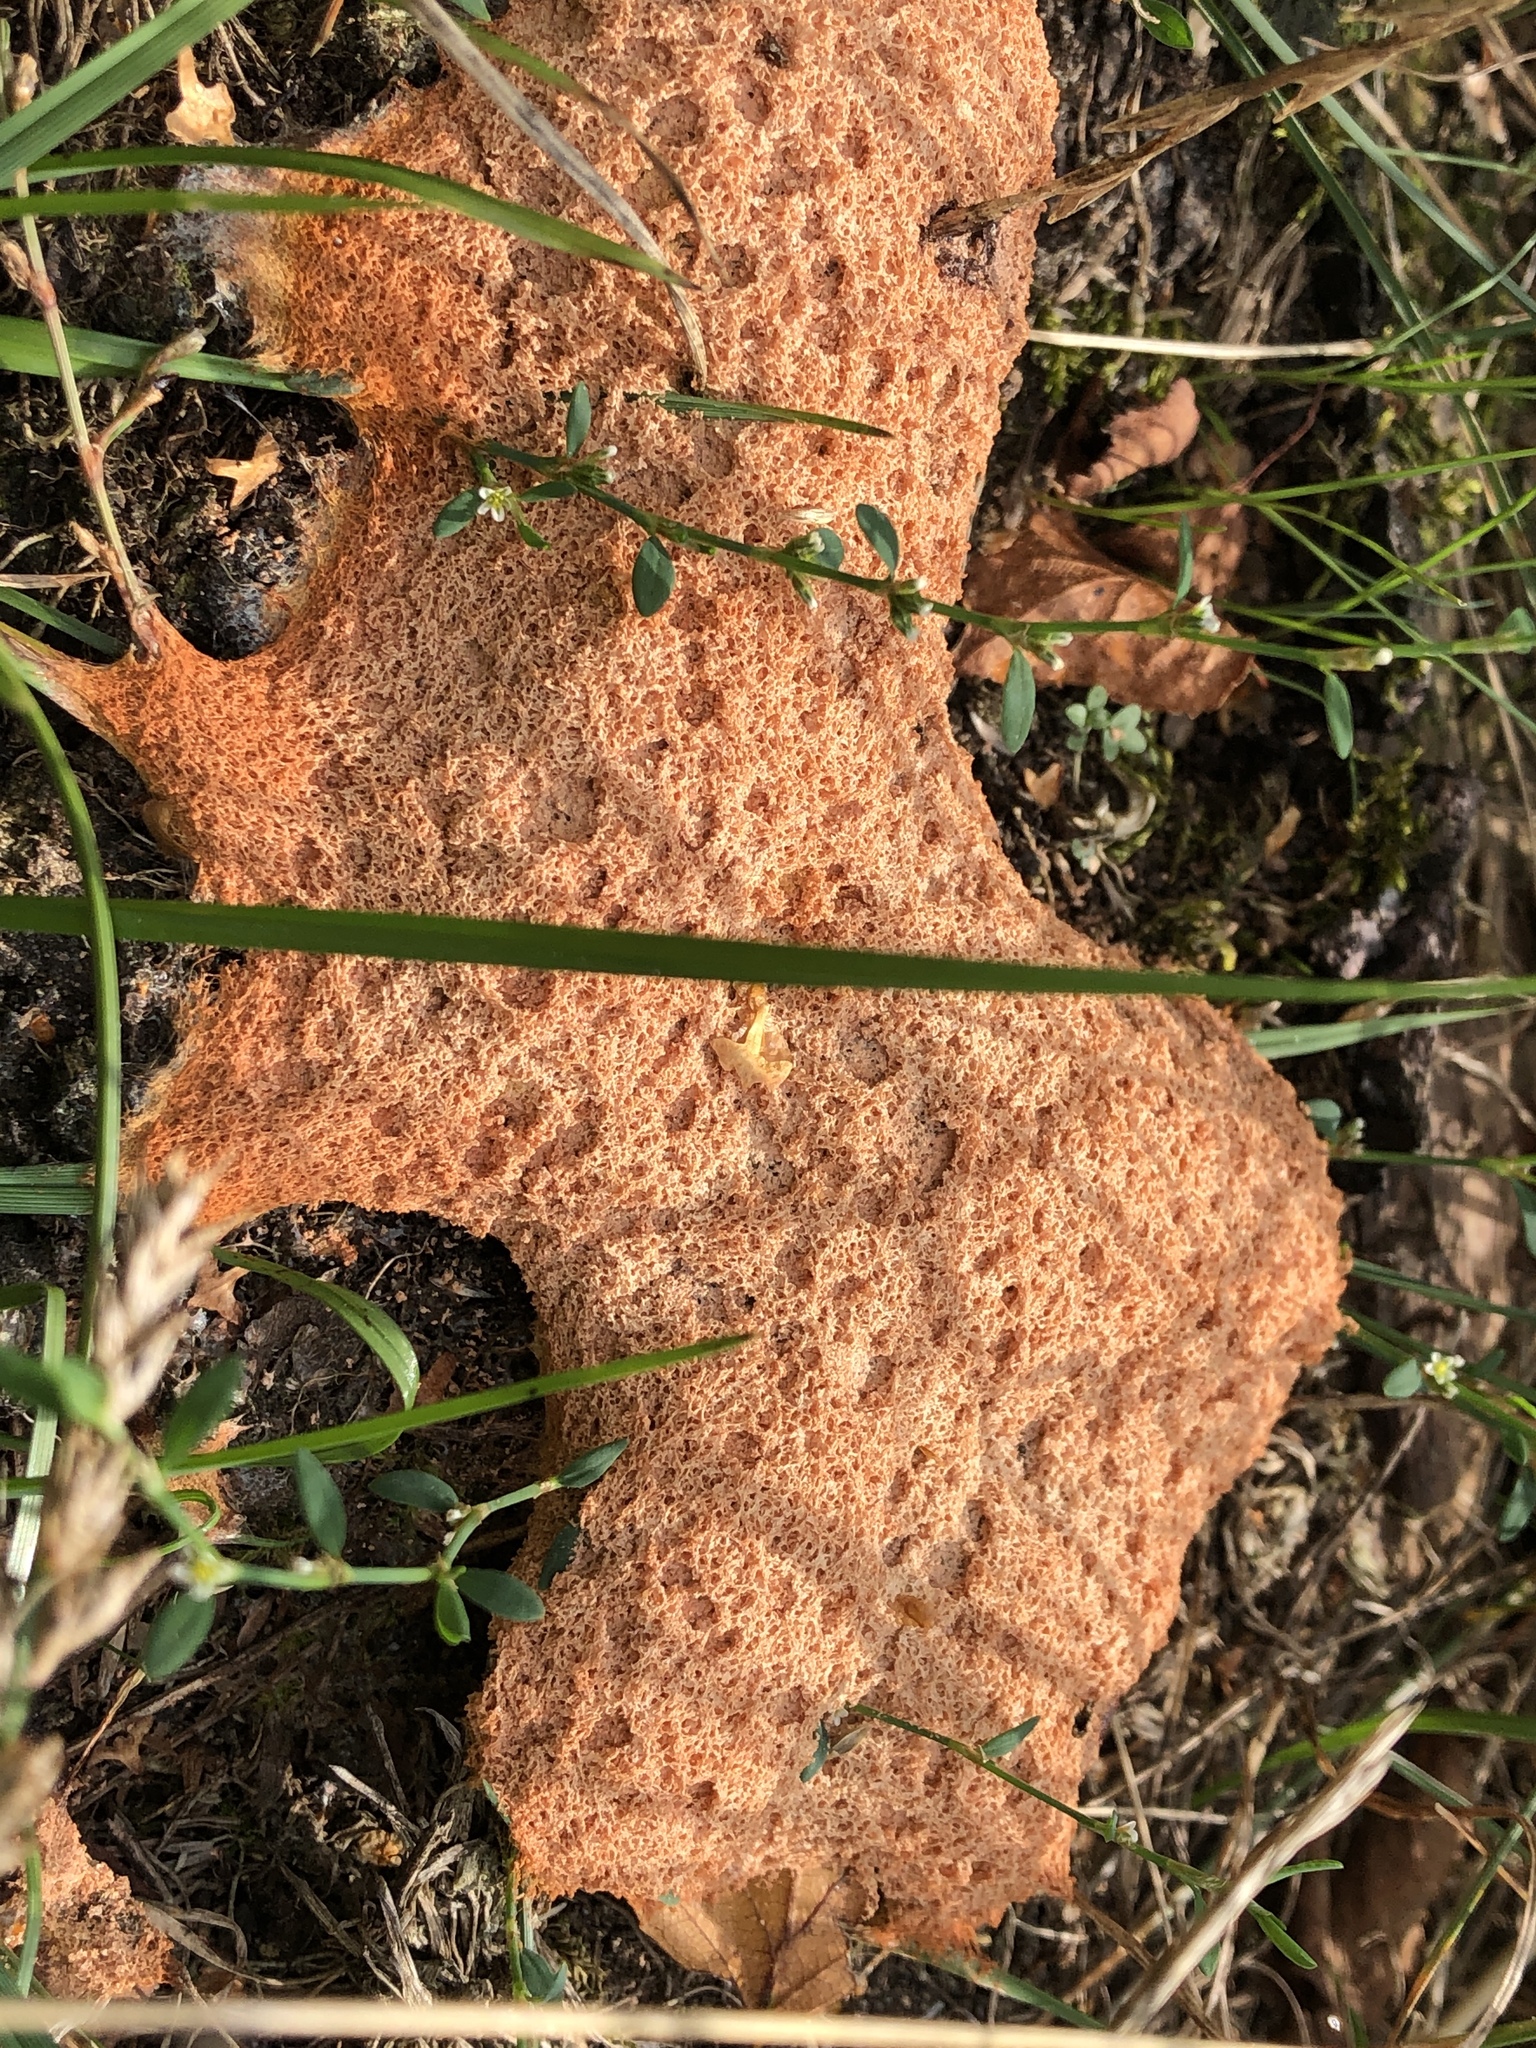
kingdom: Protozoa
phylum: Mycetozoa
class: Myxomycetes
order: Physarales
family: Physaraceae
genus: Fuligo
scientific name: Fuligo septica
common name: Dog vomit slime mold
